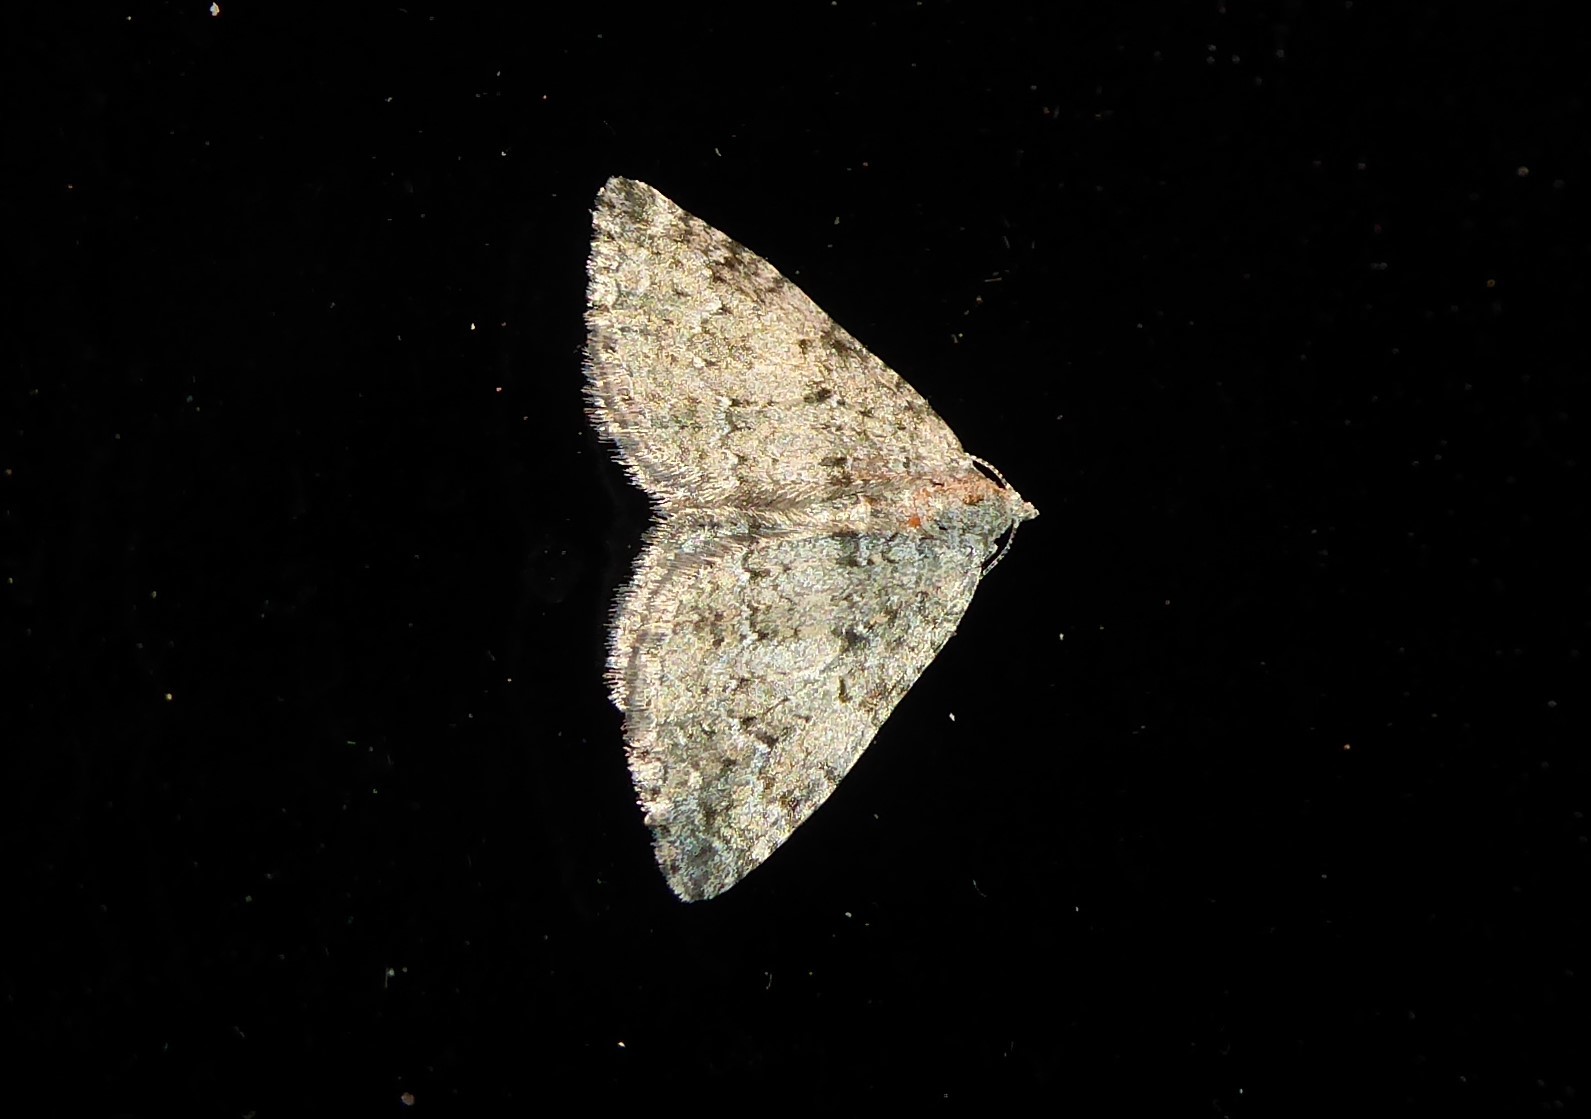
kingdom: Animalia
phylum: Arthropoda
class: Insecta
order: Lepidoptera
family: Geometridae
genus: Helastia
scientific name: Helastia corcularia
